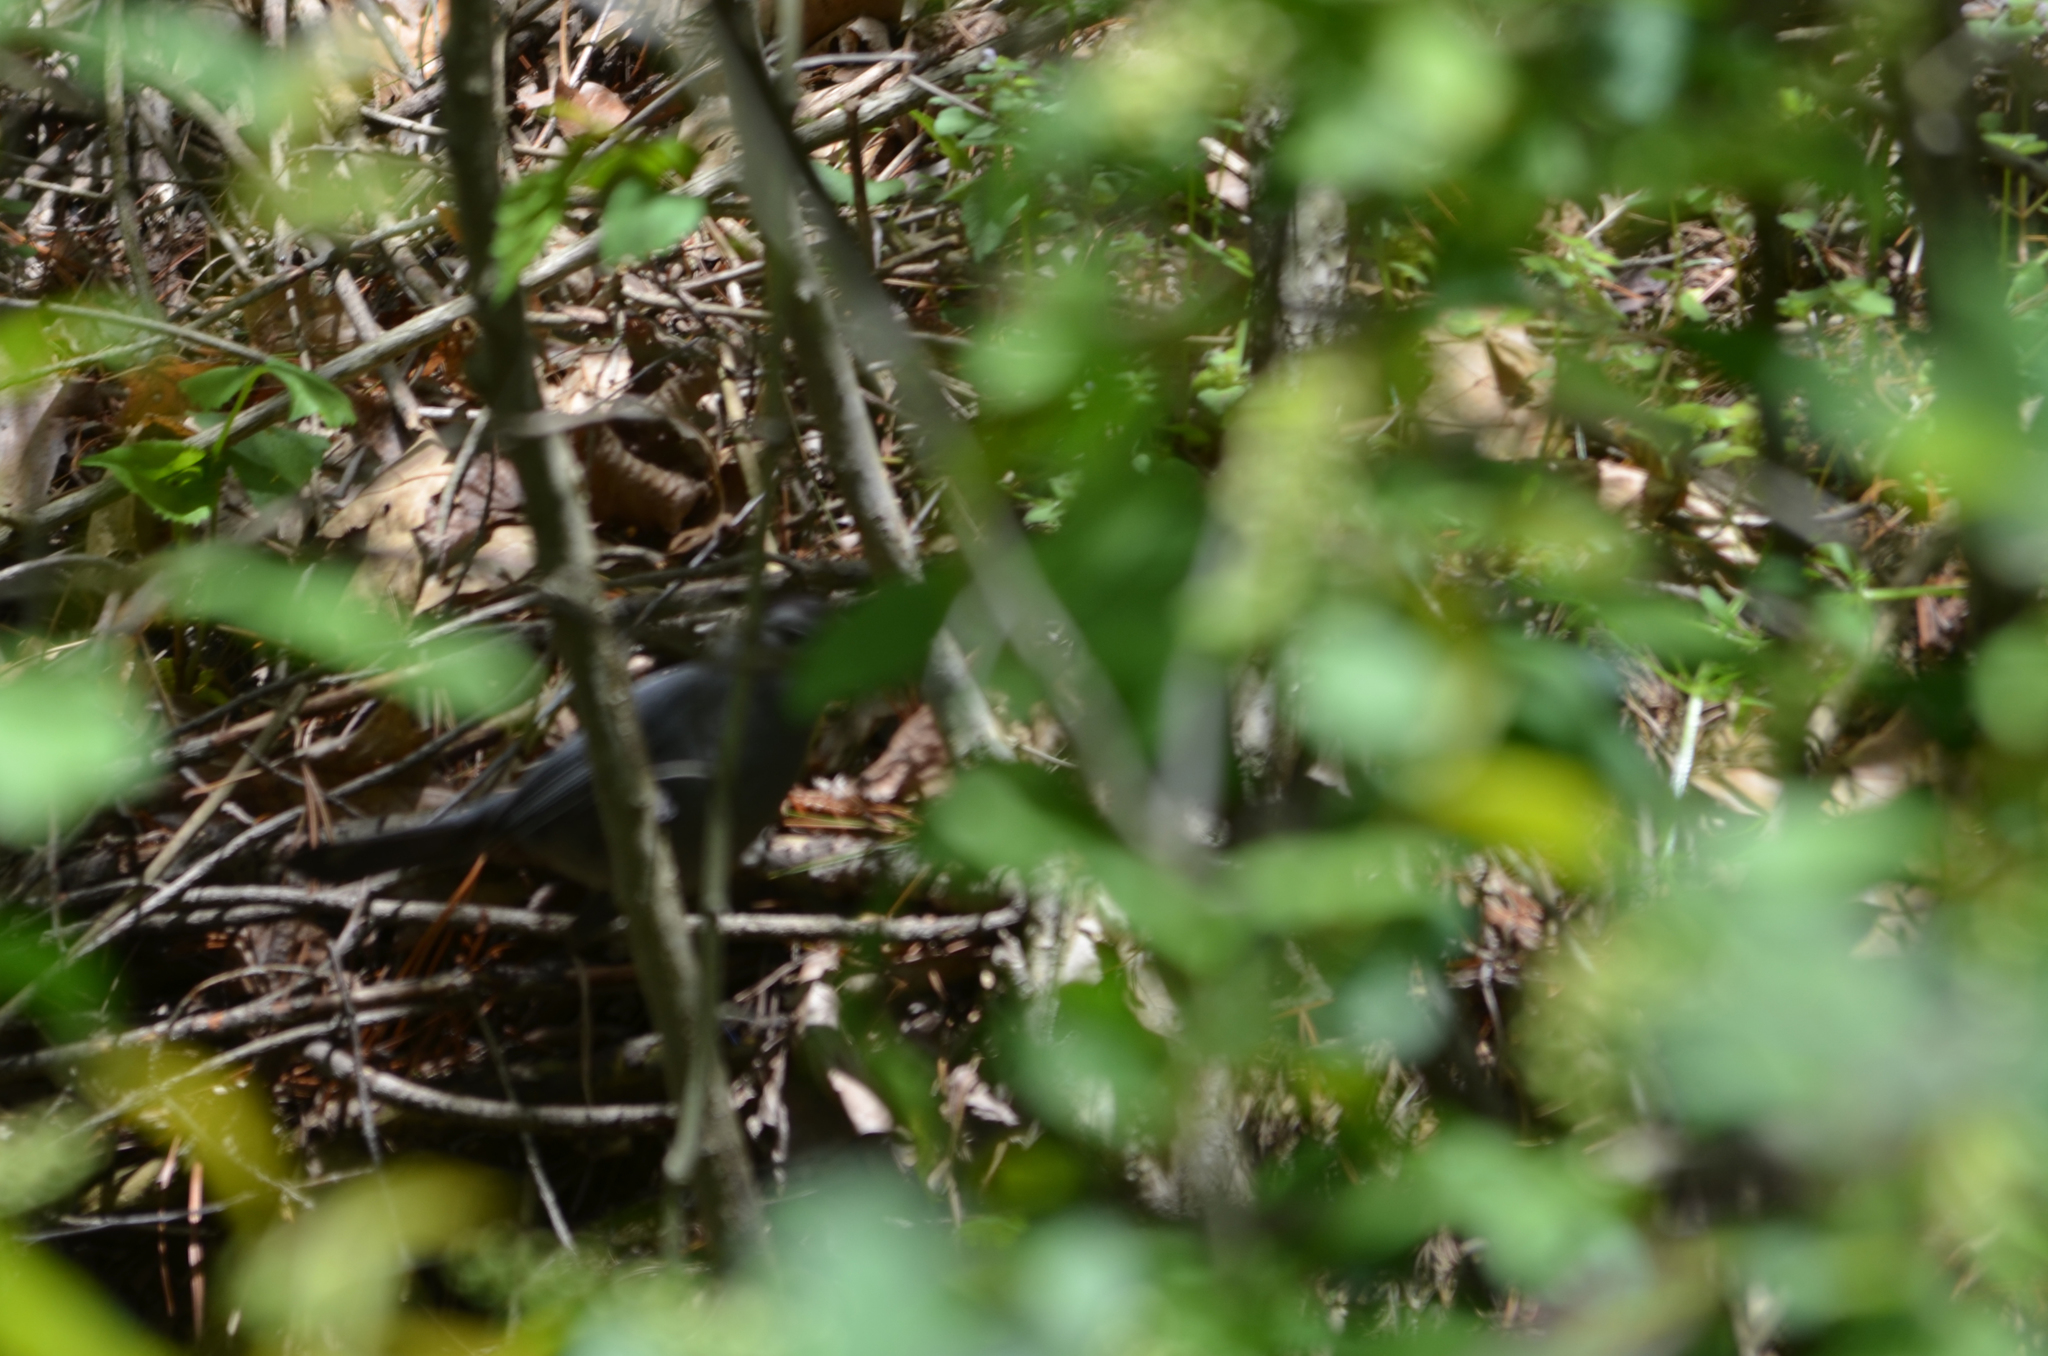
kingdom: Animalia
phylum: Chordata
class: Aves
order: Passeriformes
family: Mimidae
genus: Dumetella
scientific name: Dumetella carolinensis
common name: Gray catbird
